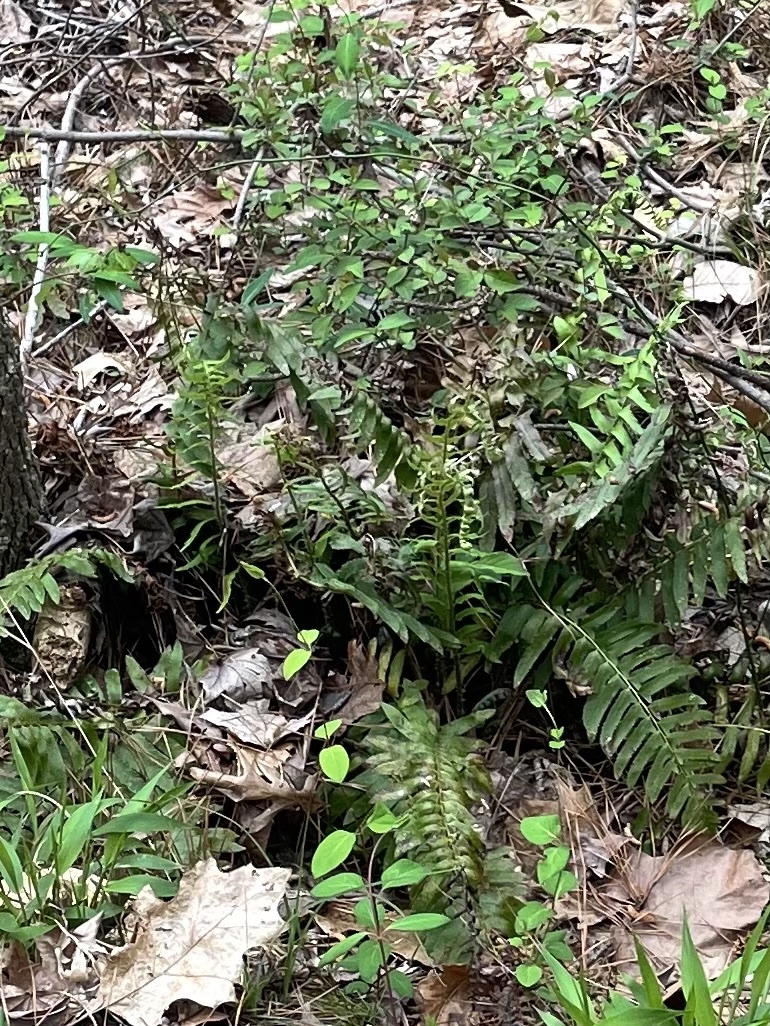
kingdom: Plantae
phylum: Tracheophyta
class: Polypodiopsida
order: Polypodiales
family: Dryopteridaceae
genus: Polystichum
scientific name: Polystichum acrostichoides
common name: Christmas fern
